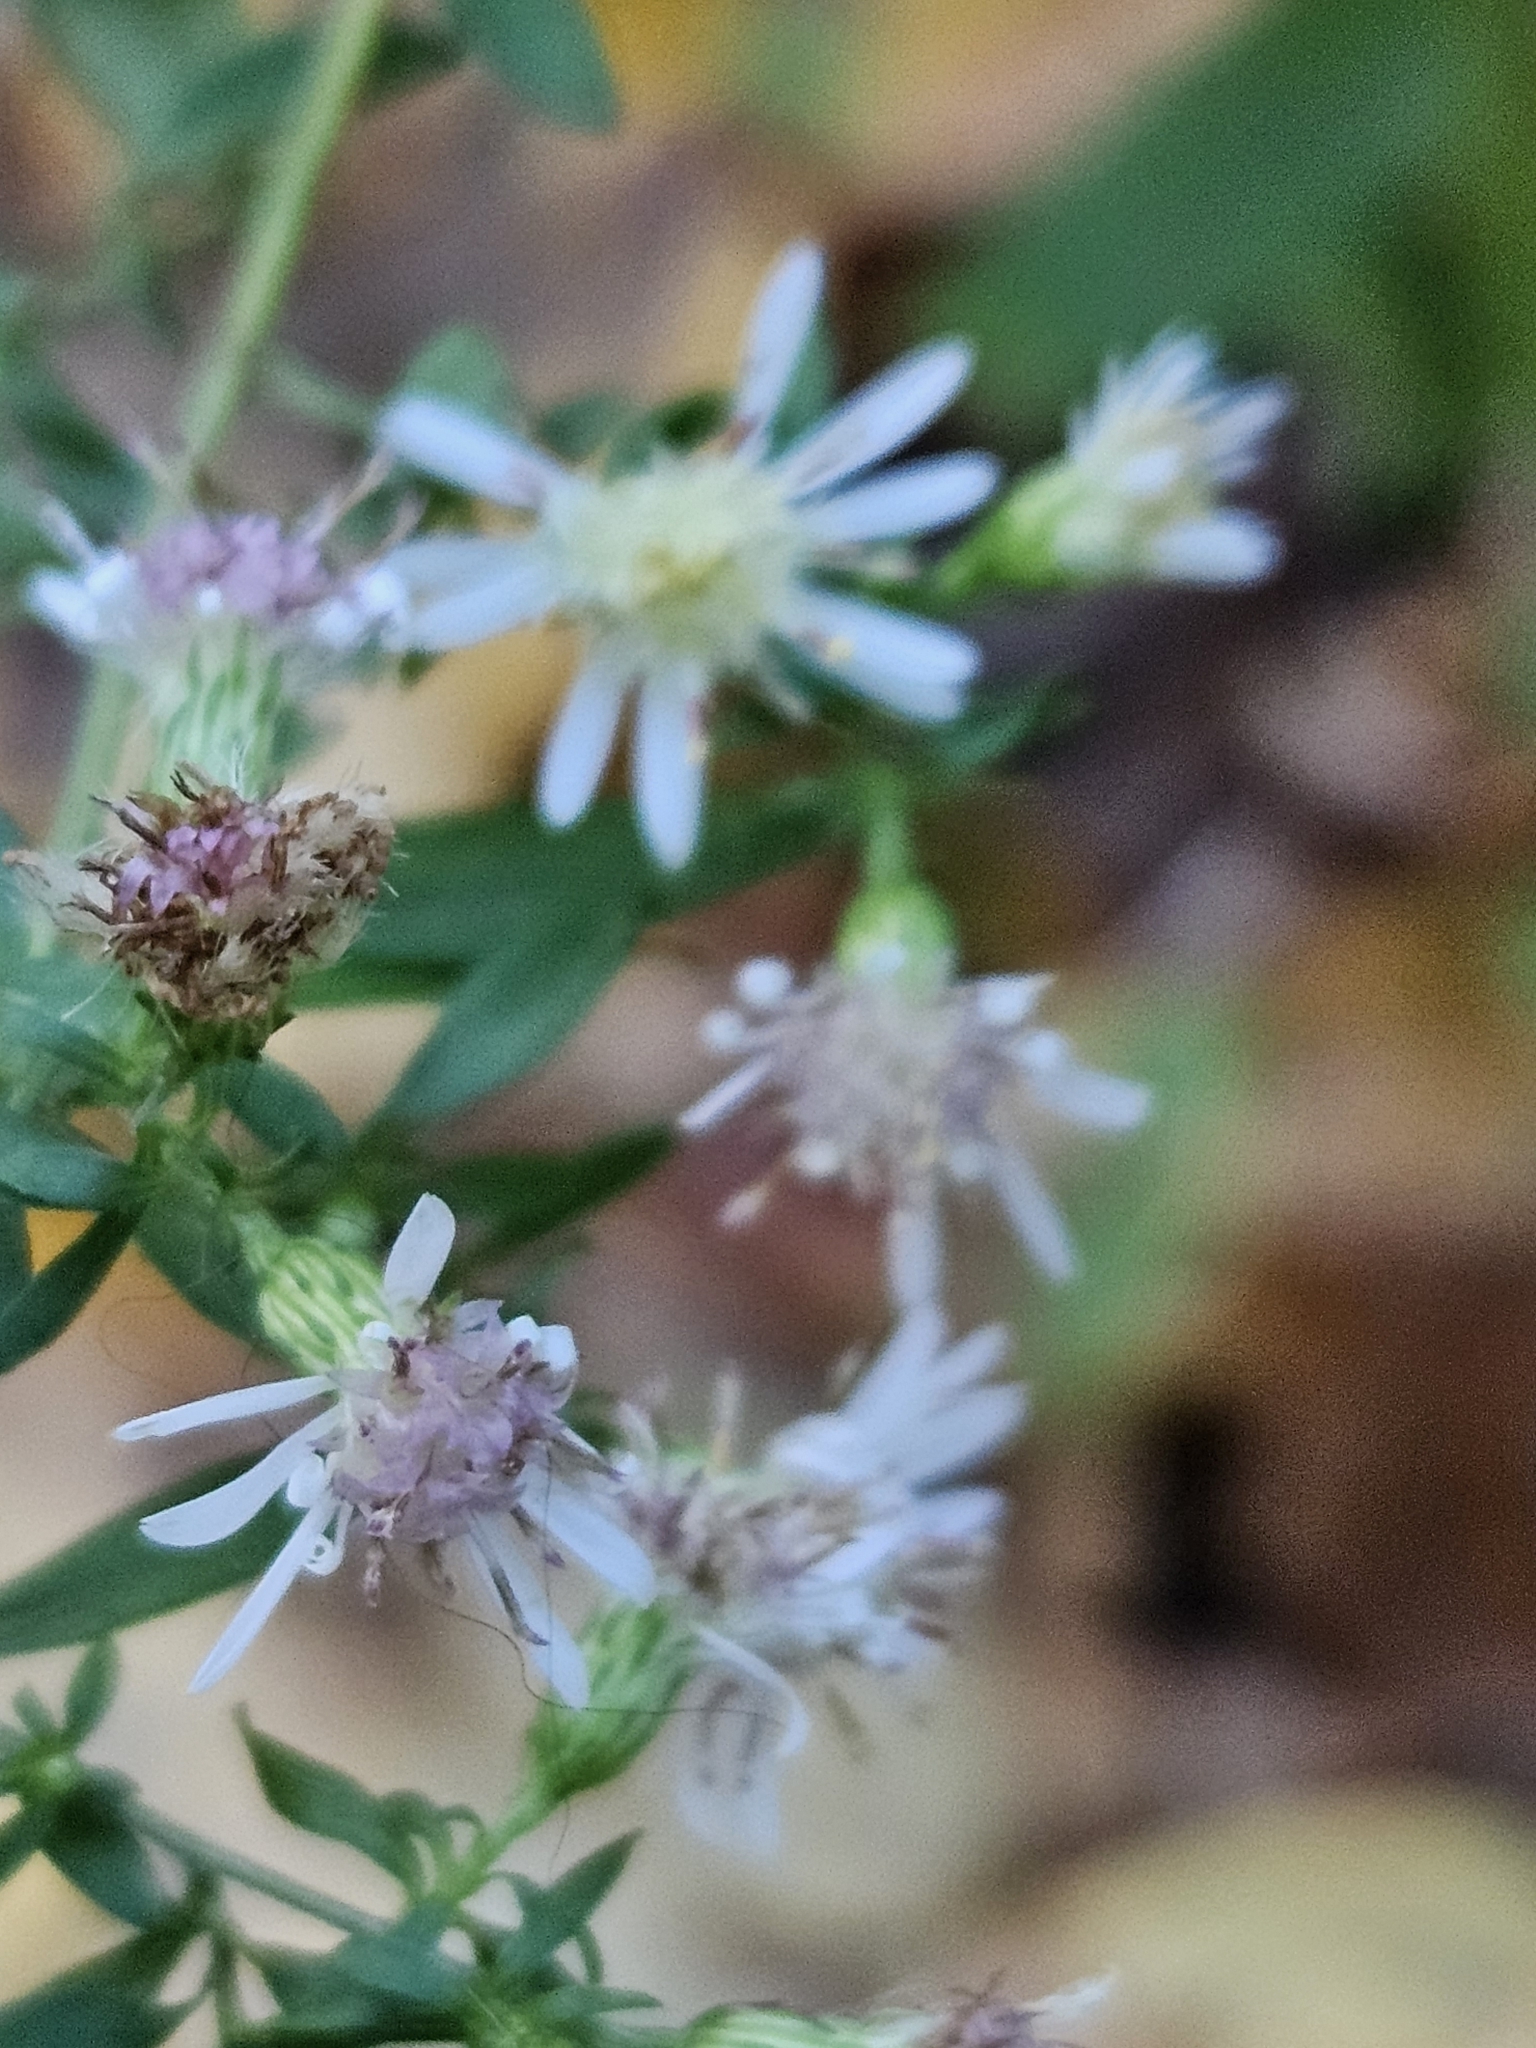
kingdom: Plantae
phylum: Tracheophyta
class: Magnoliopsida
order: Asterales
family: Asteraceae
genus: Symphyotrichum
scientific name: Symphyotrichum lateriflorum
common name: Calico aster
